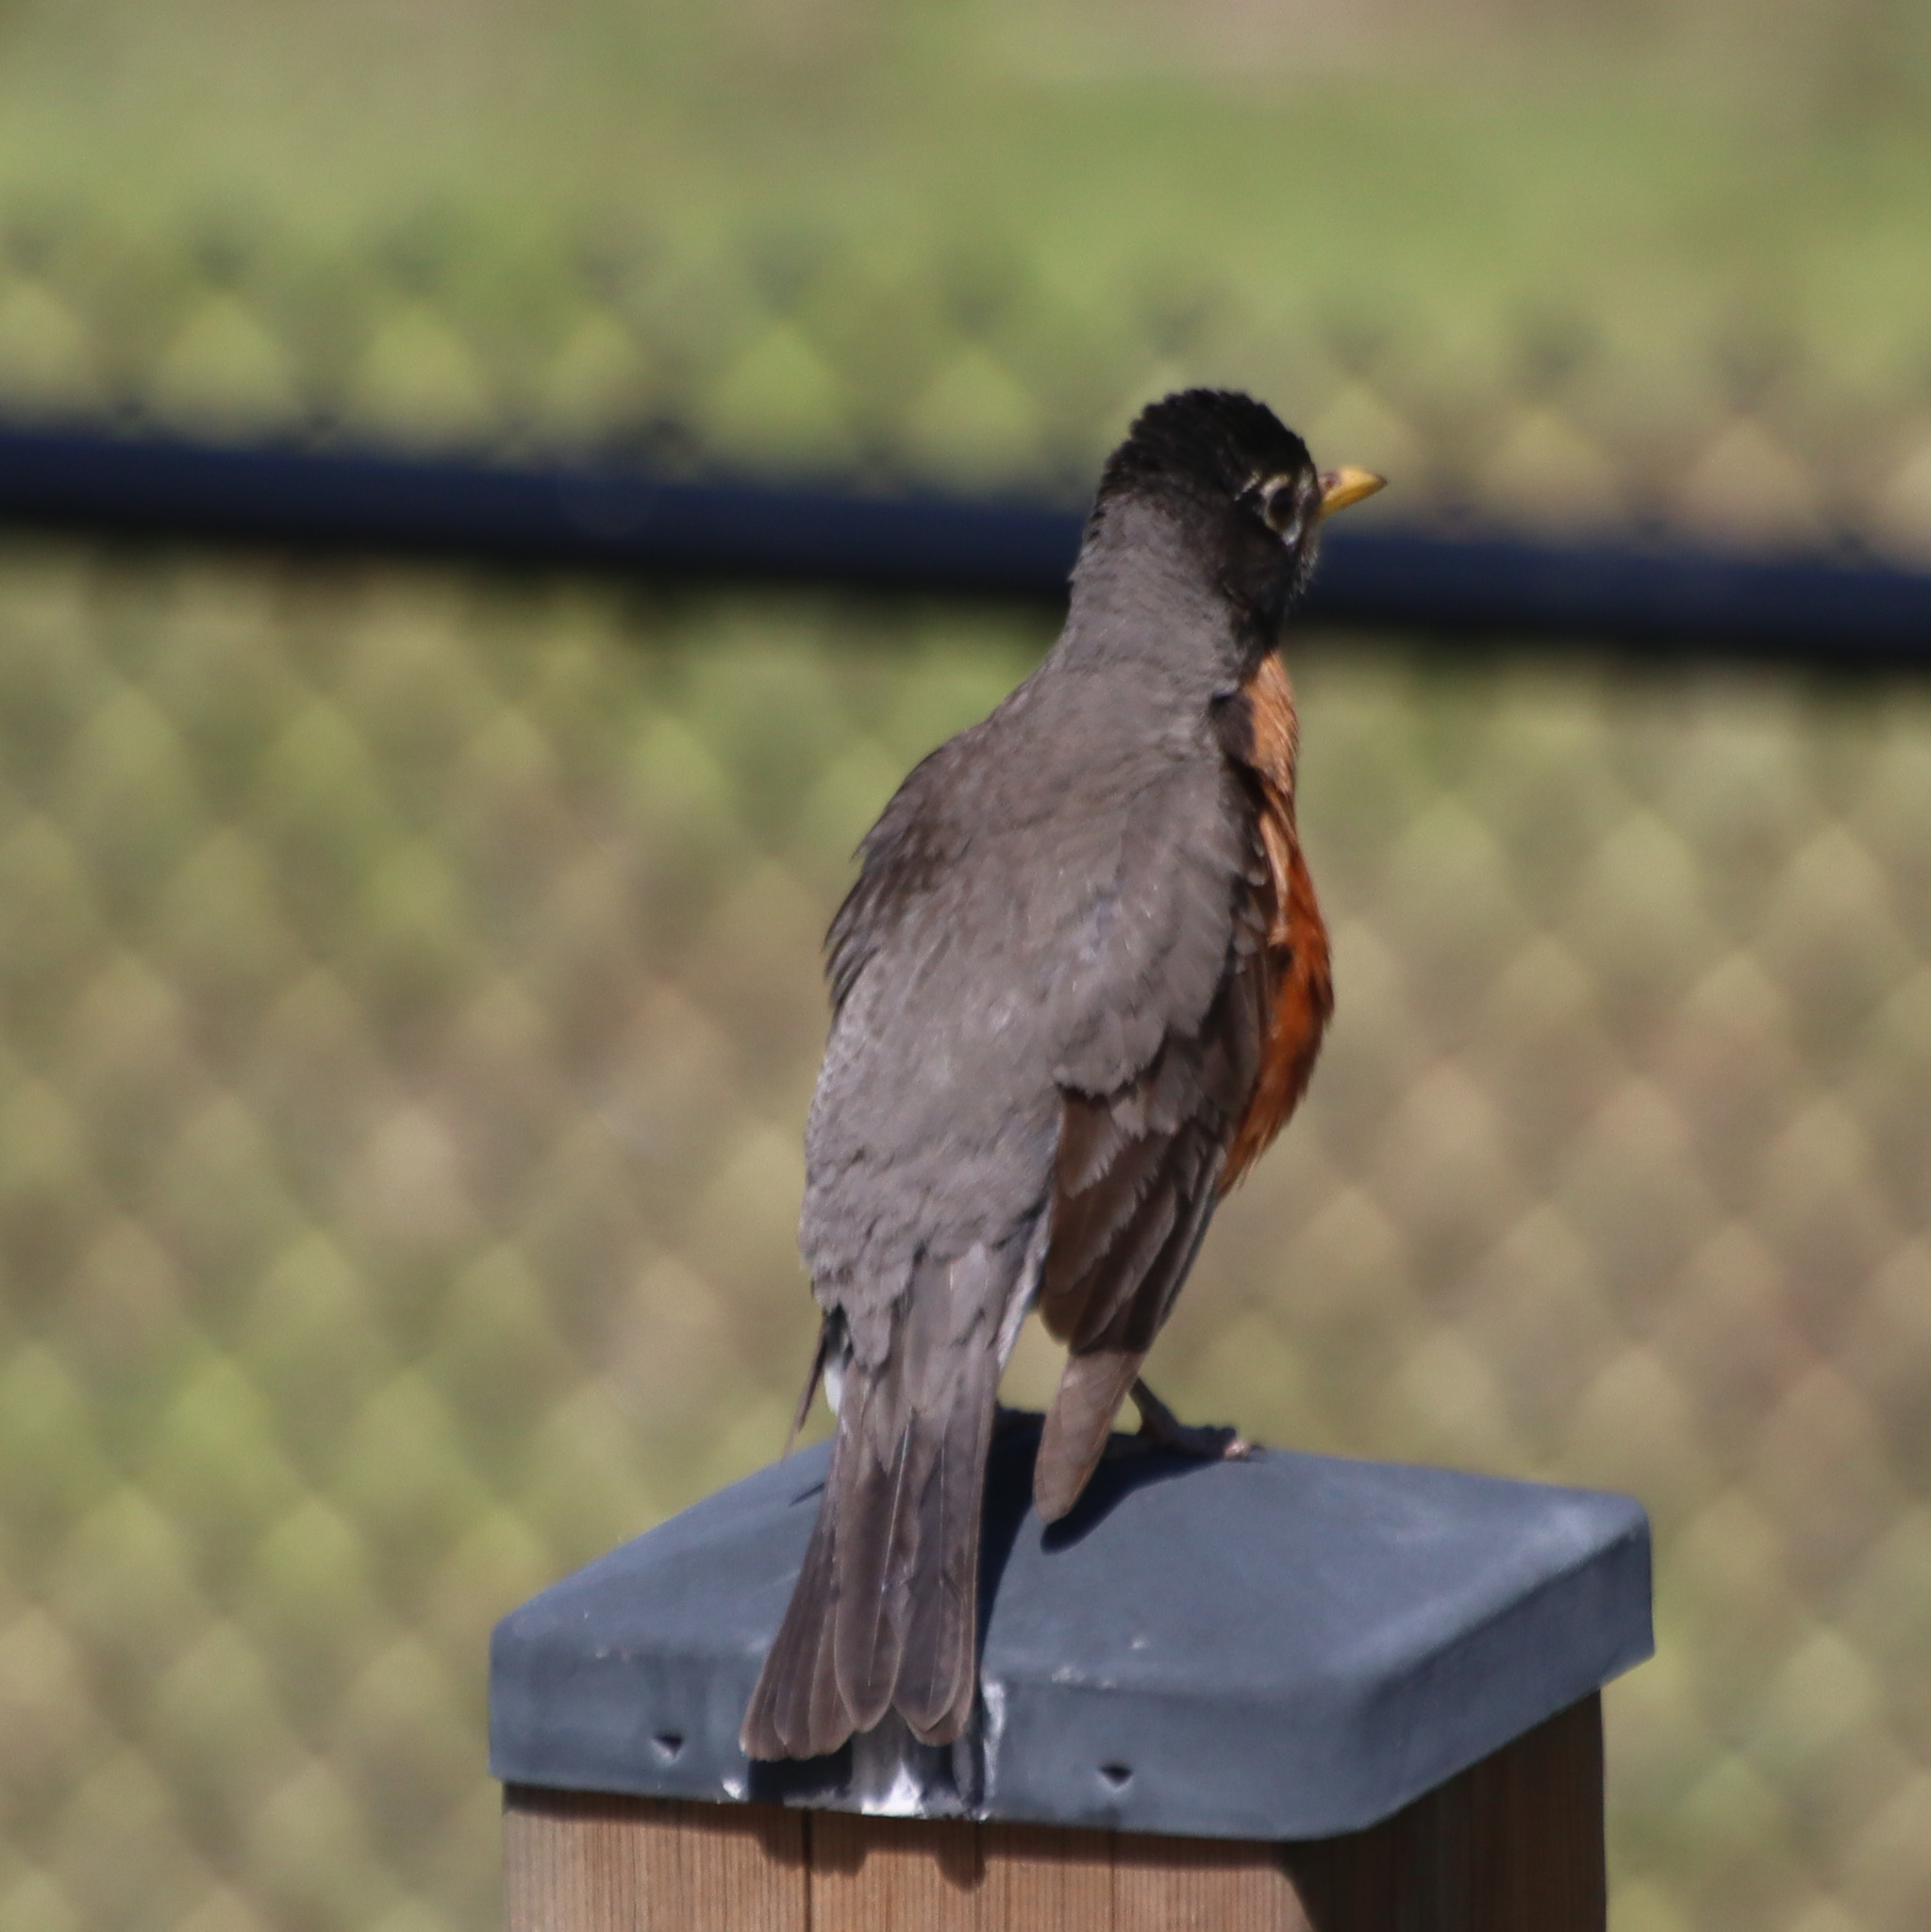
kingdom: Animalia
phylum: Chordata
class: Aves
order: Passeriformes
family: Turdidae
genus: Turdus
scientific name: Turdus migratorius
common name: American robin
